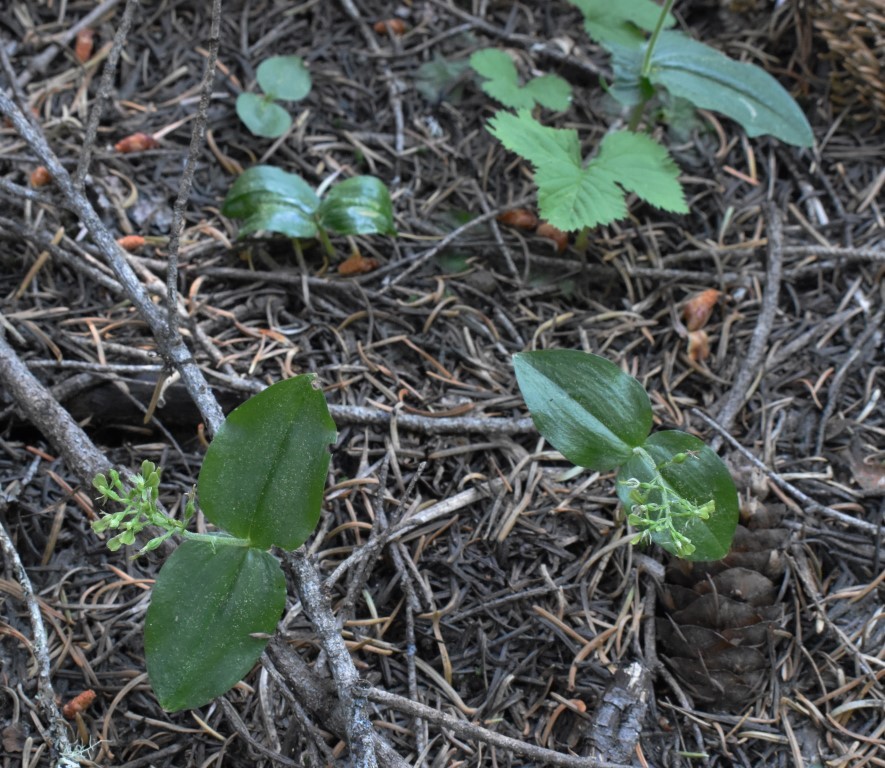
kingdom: Plantae
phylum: Tracheophyta
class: Liliopsida
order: Asparagales
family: Orchidaceae
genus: Neottia
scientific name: Neottia banksiana
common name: Northwestern twayblade
